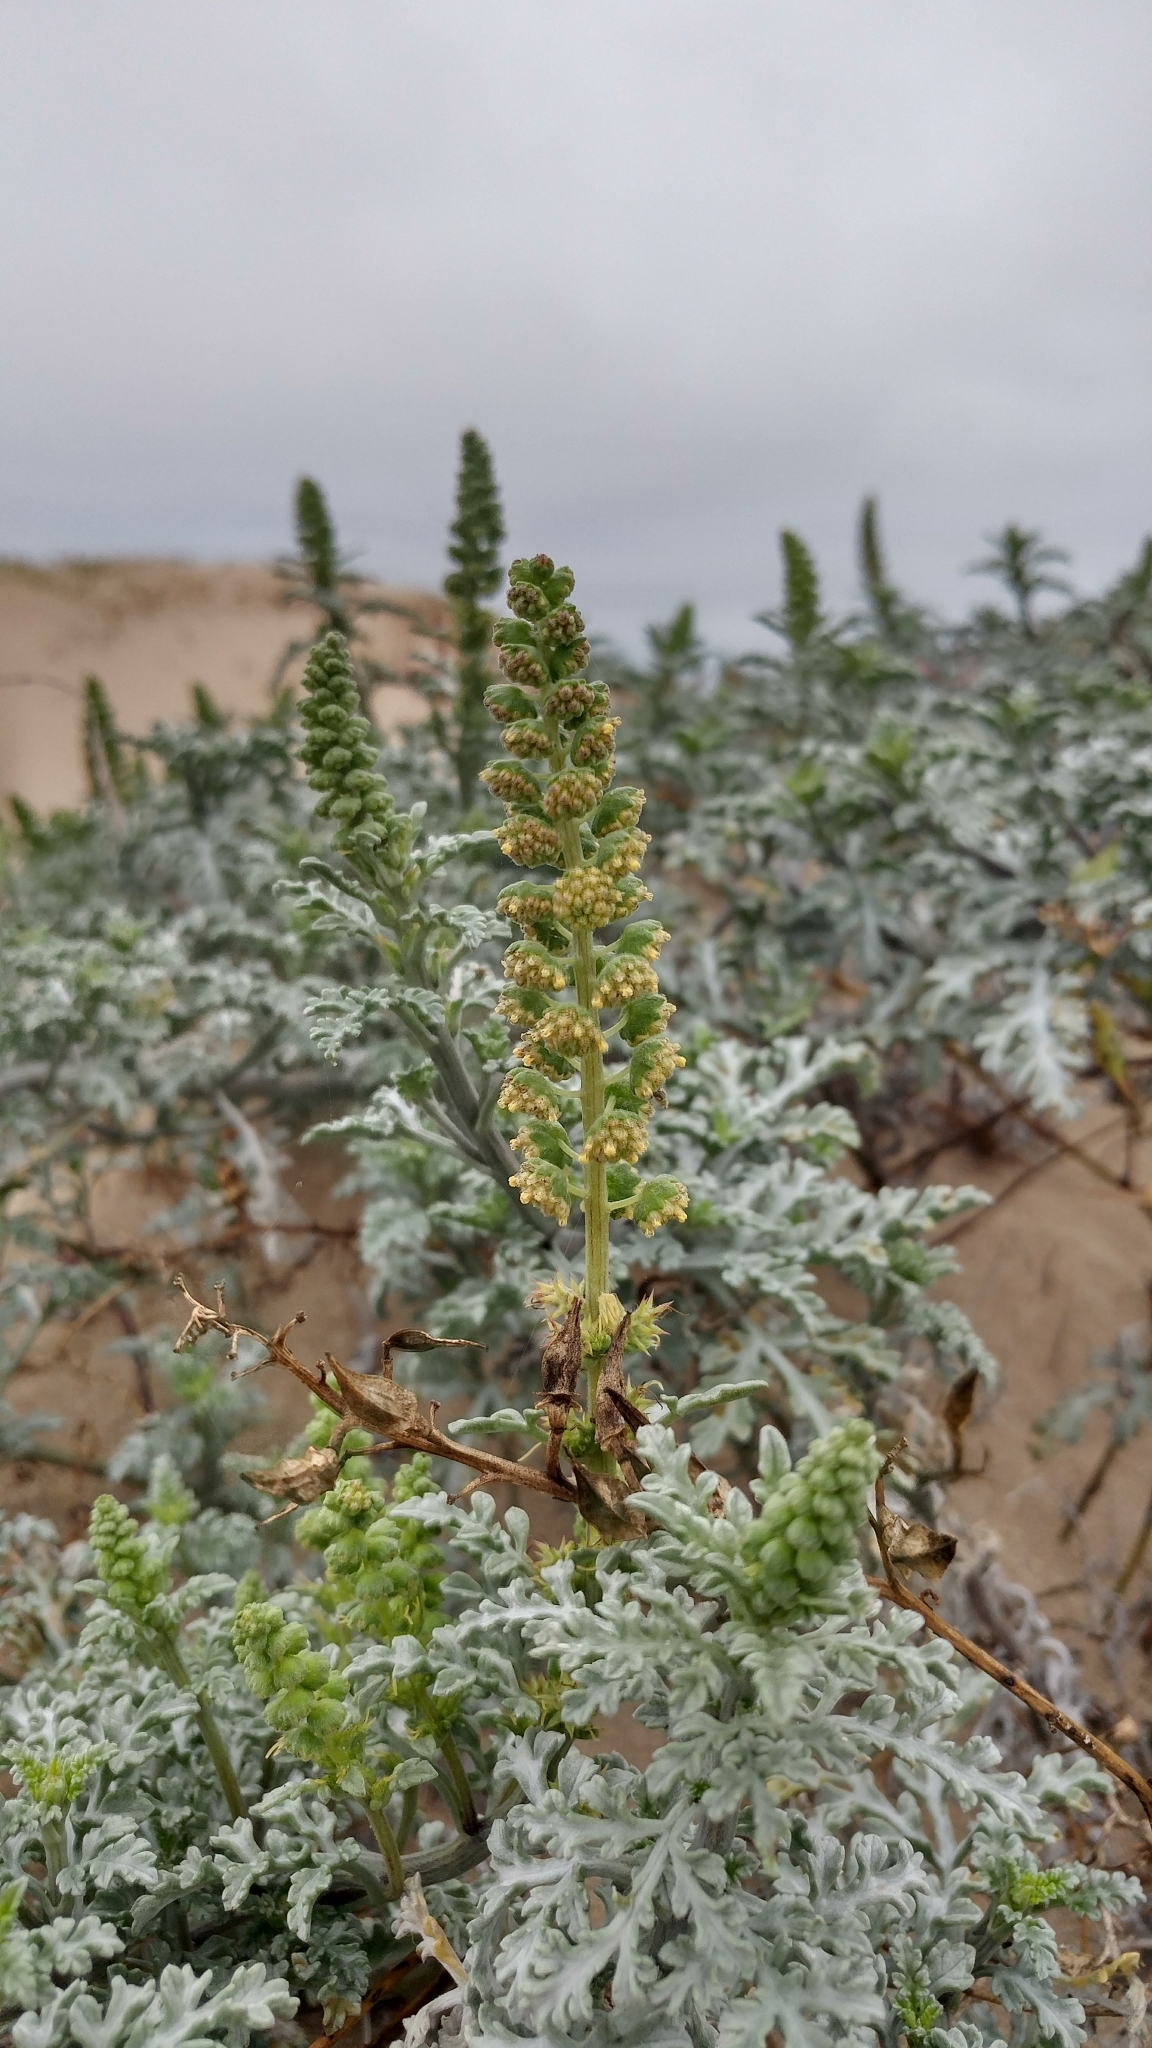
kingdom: Plantae
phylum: Tracheophyta
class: Magnoliopsida
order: Asterales
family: Asteraceae
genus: Ambrosia
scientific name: Ambrosia chamissonis
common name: Beachbur
